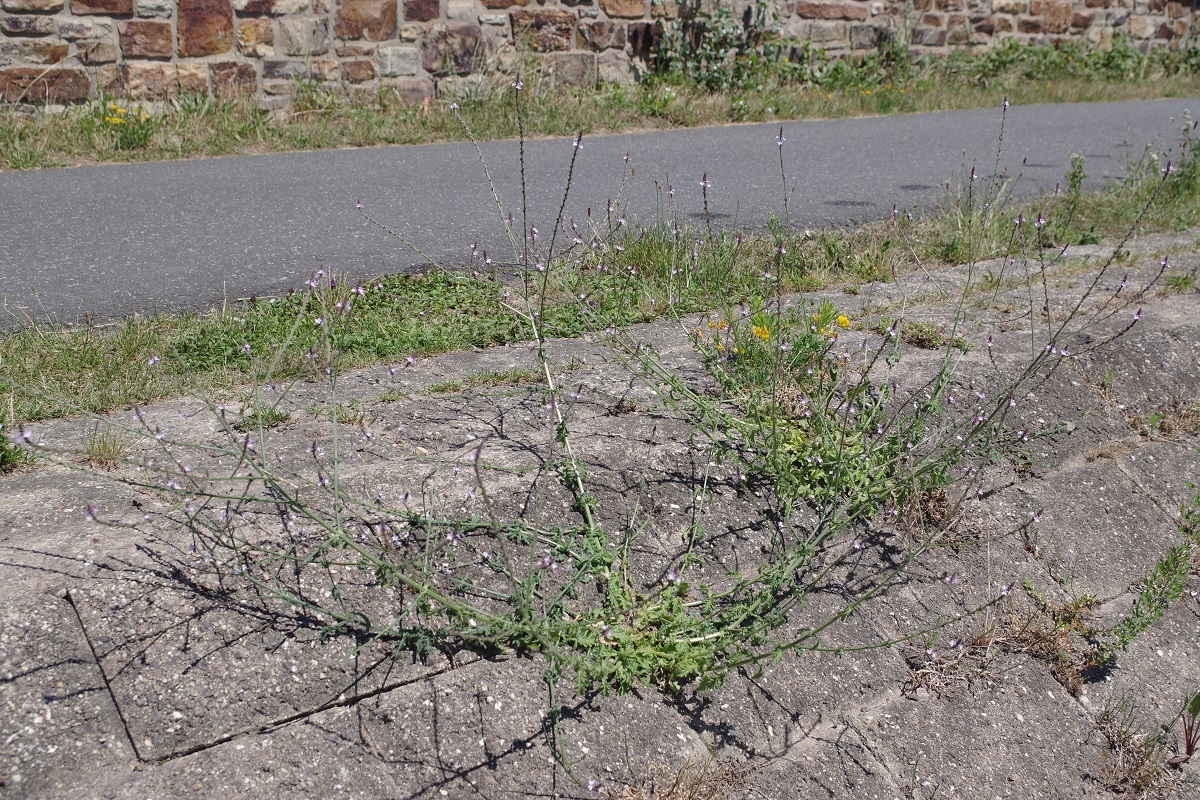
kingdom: Plantae
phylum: Tracheophyta
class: Magnoliopsida
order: Lamiales
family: Verbenaceae
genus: Verbena
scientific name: Verbena officinalis
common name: Vervain
